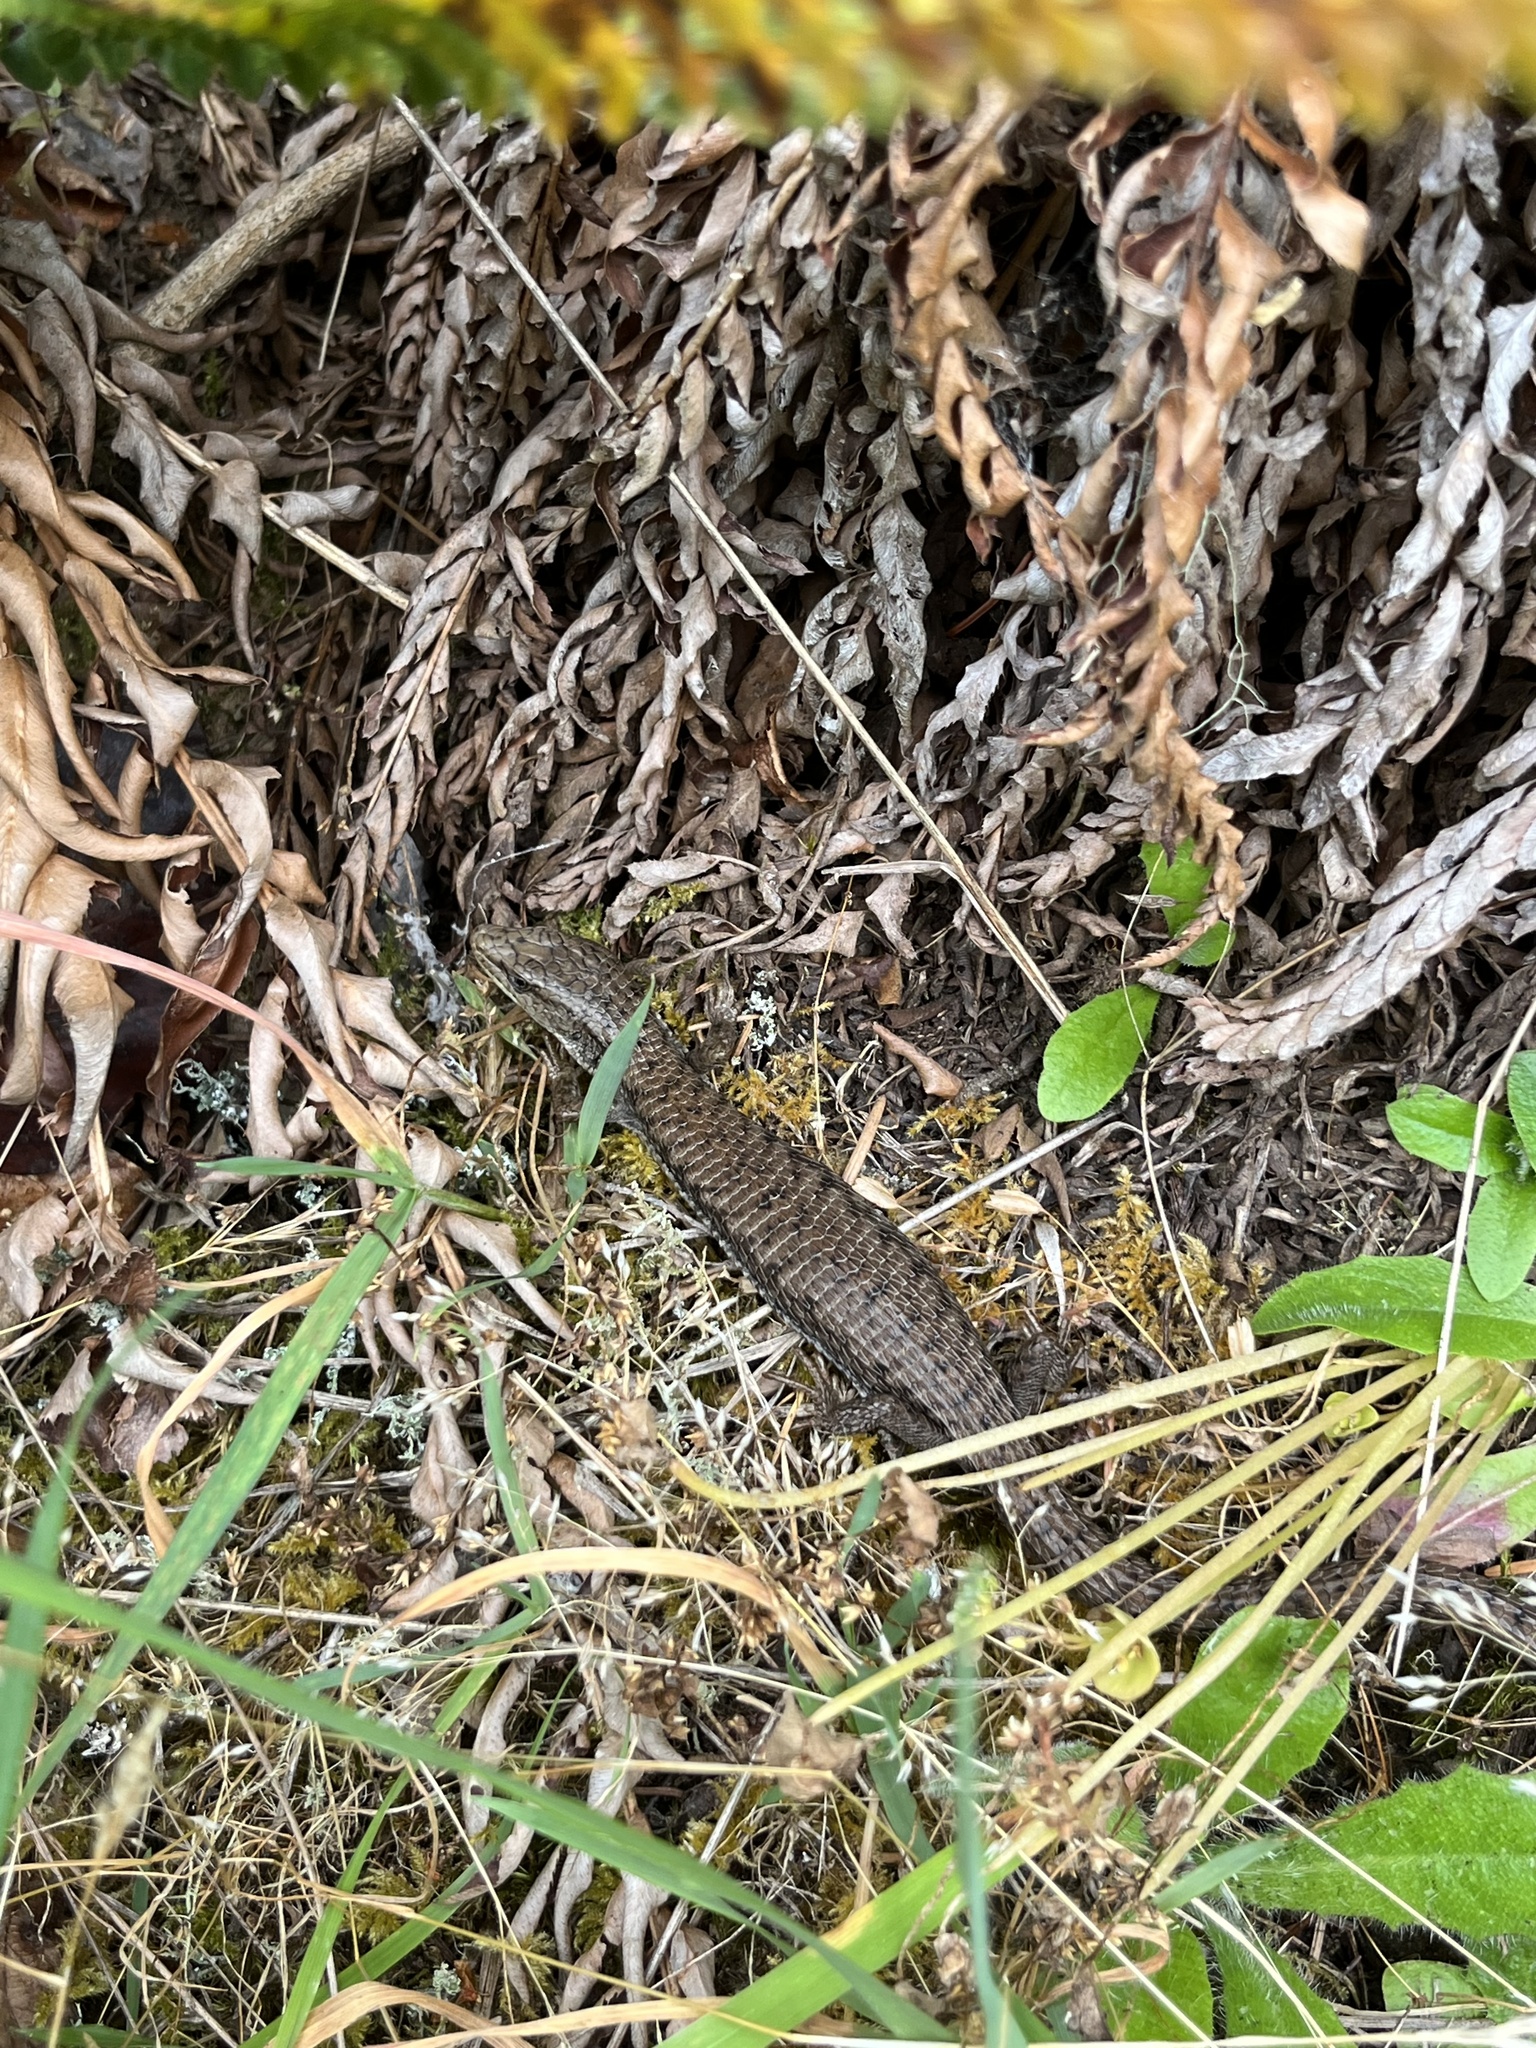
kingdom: Animalia
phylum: Chordata
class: Squamata
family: Anguidae
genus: Elgaria
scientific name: Elgaria coerulea
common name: Northern alligator lizard
